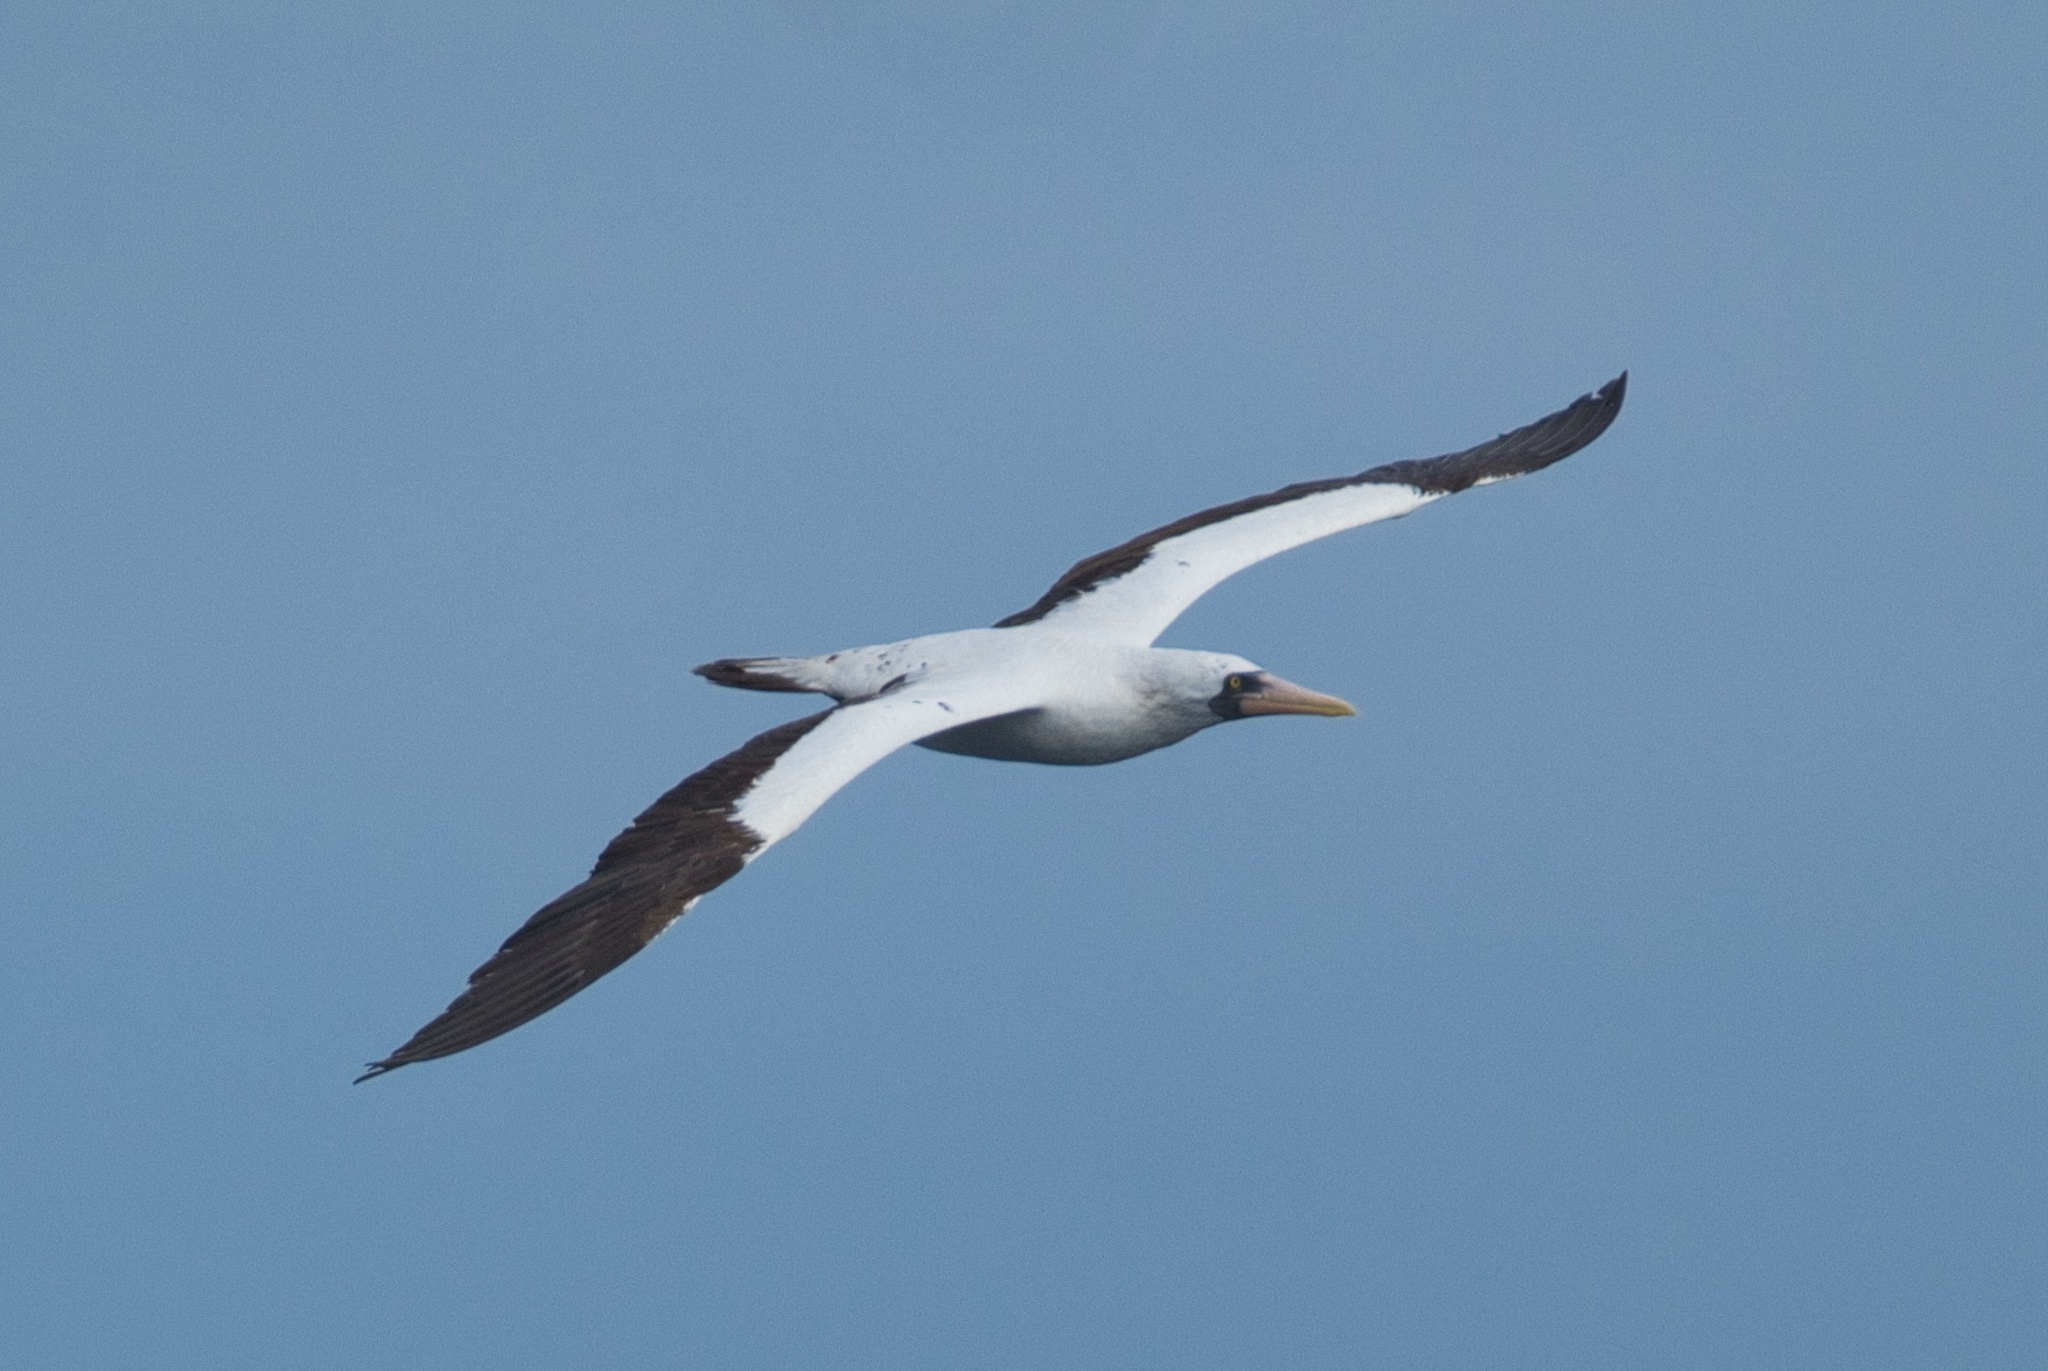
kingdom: Animalia
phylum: Chordata
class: Aves
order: Suliformes
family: Sulidae
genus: Sula
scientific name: Sula granti
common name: Nazca booby
